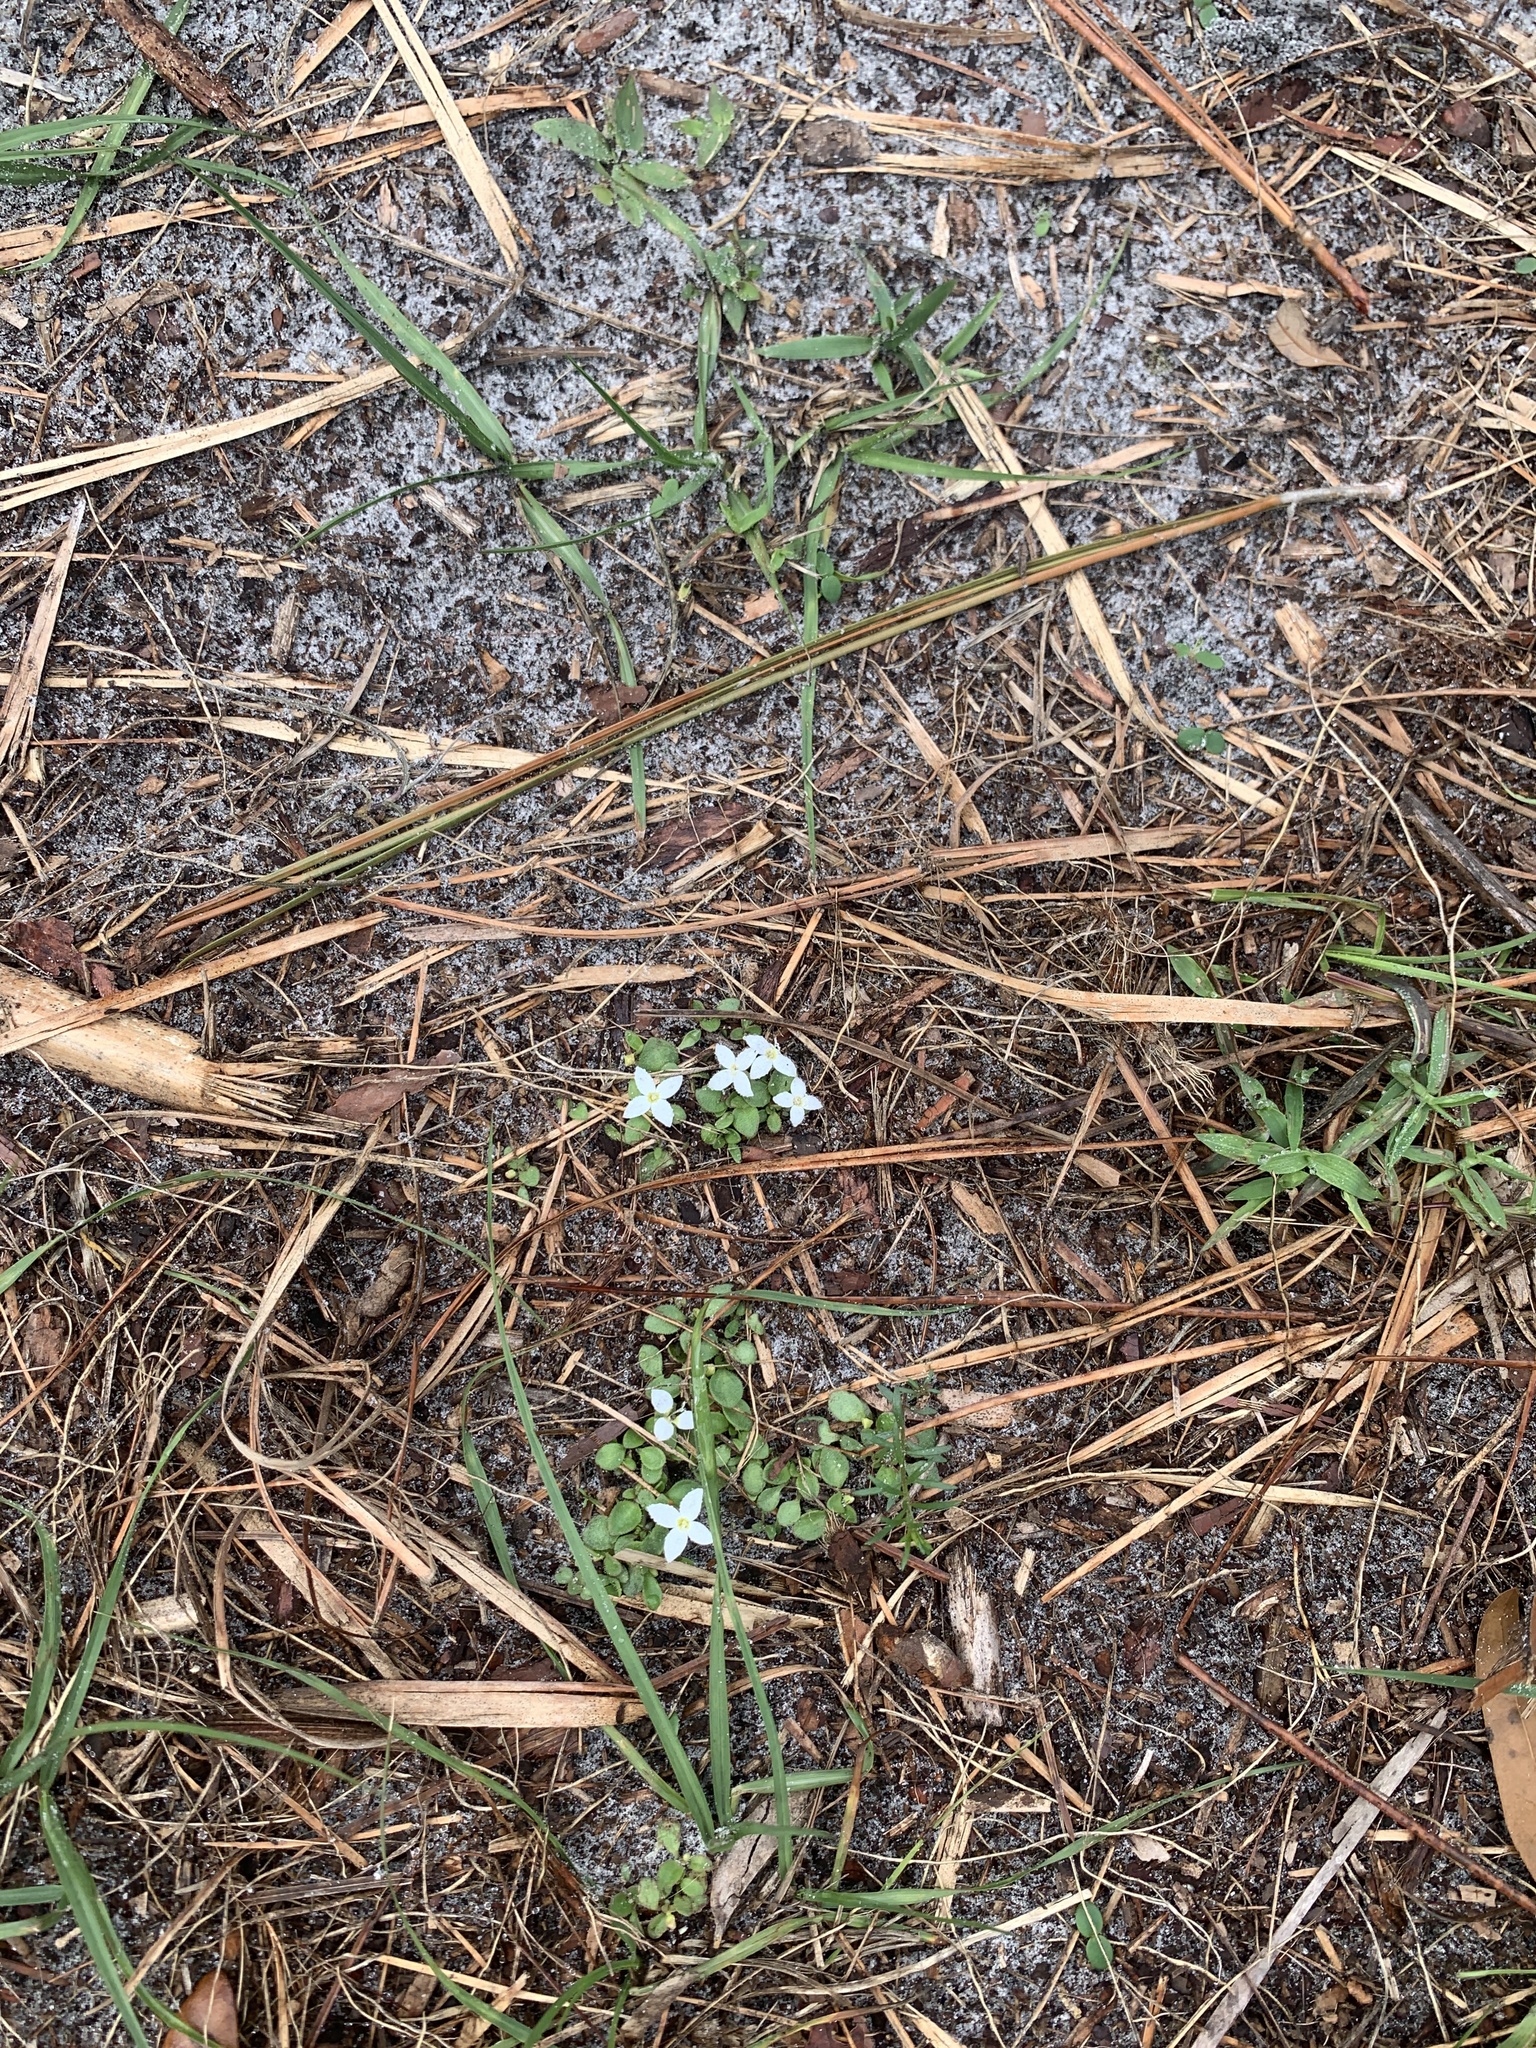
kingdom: Plantae
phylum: Tracheophyta
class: Magnoliopsida
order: Gentianales
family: Rubiaceae
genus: Houstonia
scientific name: Houstonia procumbens
